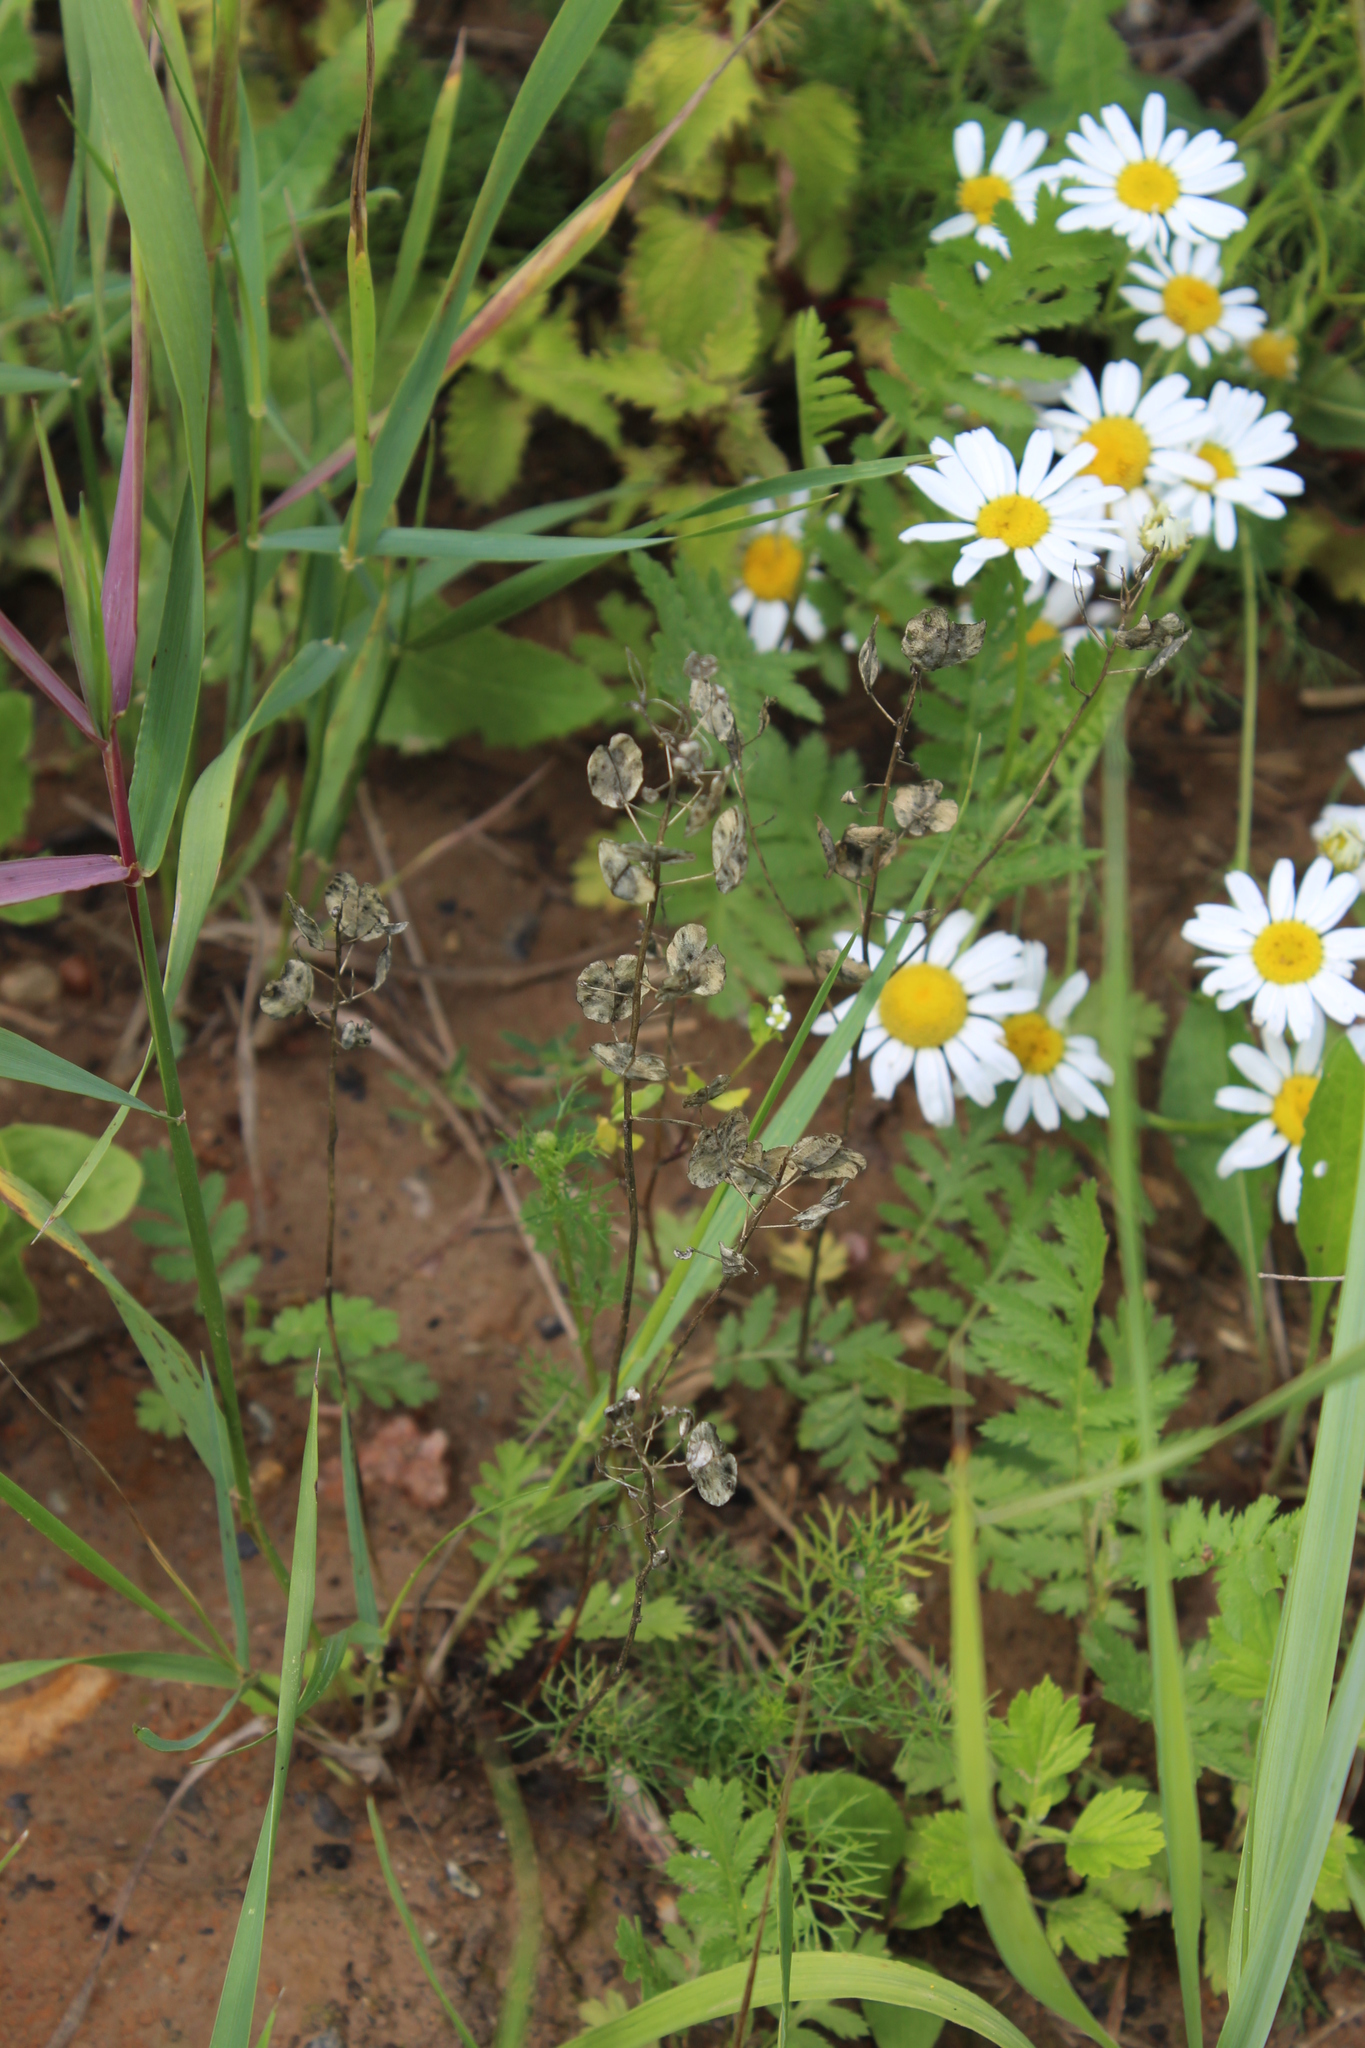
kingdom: Plantae
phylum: Tracheophyta
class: Magnoliopsida
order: Brassicales
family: Brassicaceae
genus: Thlaspi
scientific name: Thlaspi arvense
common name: Field pennycress
